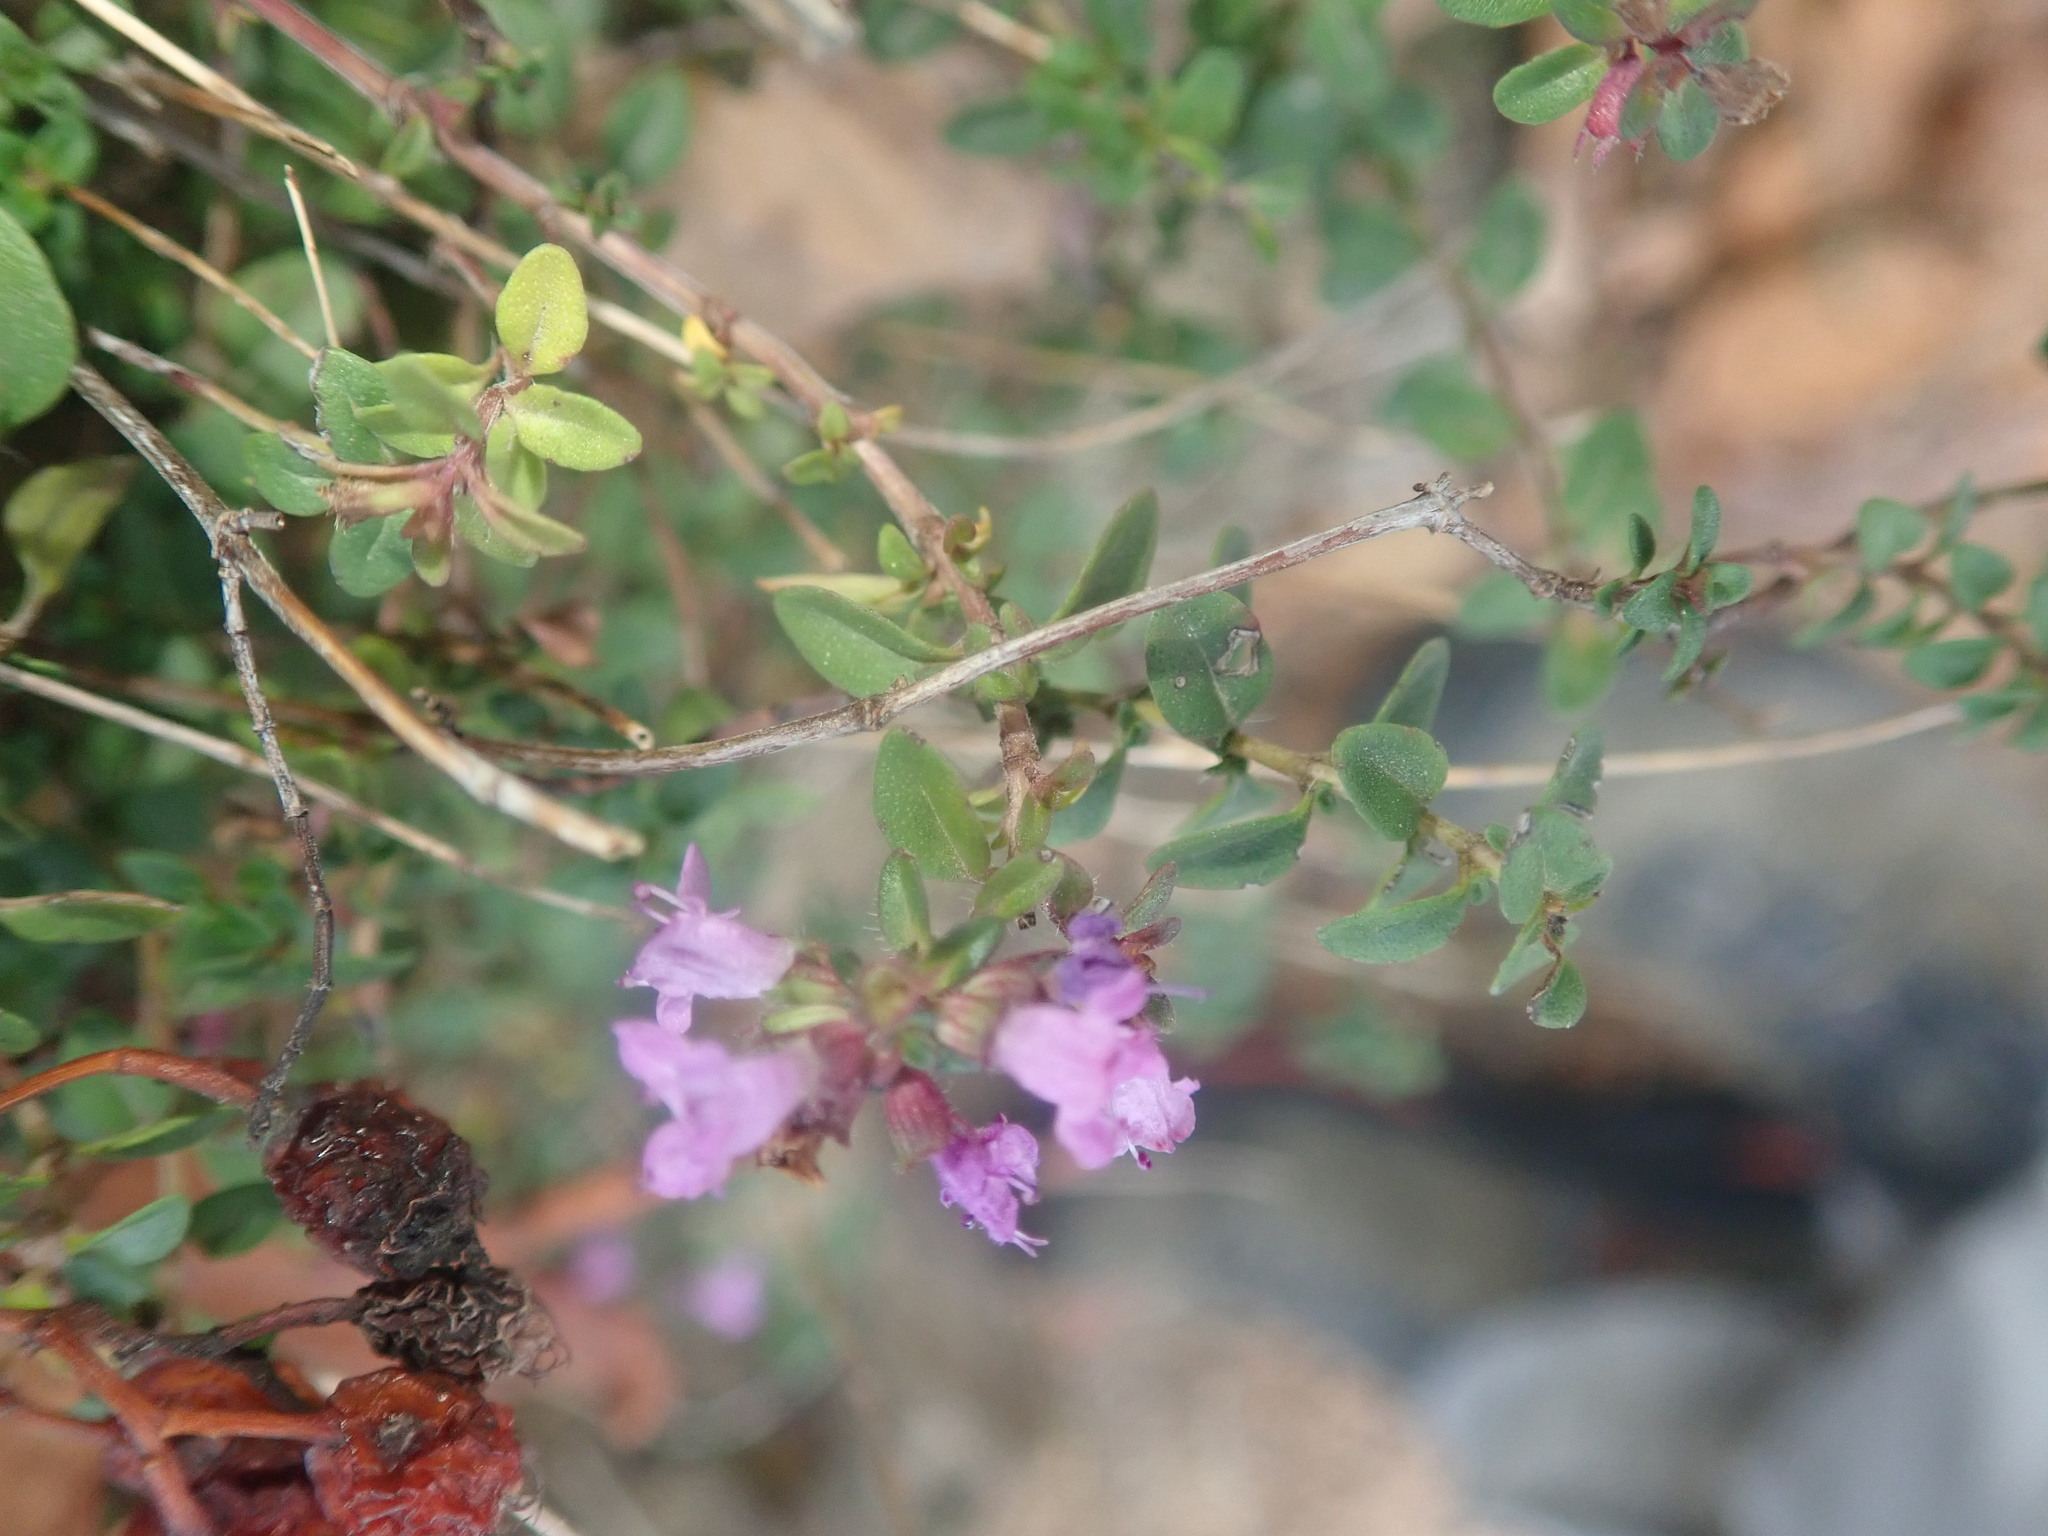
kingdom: Plantae
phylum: Tracheophyta
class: Magnoliopsida
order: Lamiales
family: Lamiaceae
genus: Origanum
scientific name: Origanum vulgare
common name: Wild marjoram
